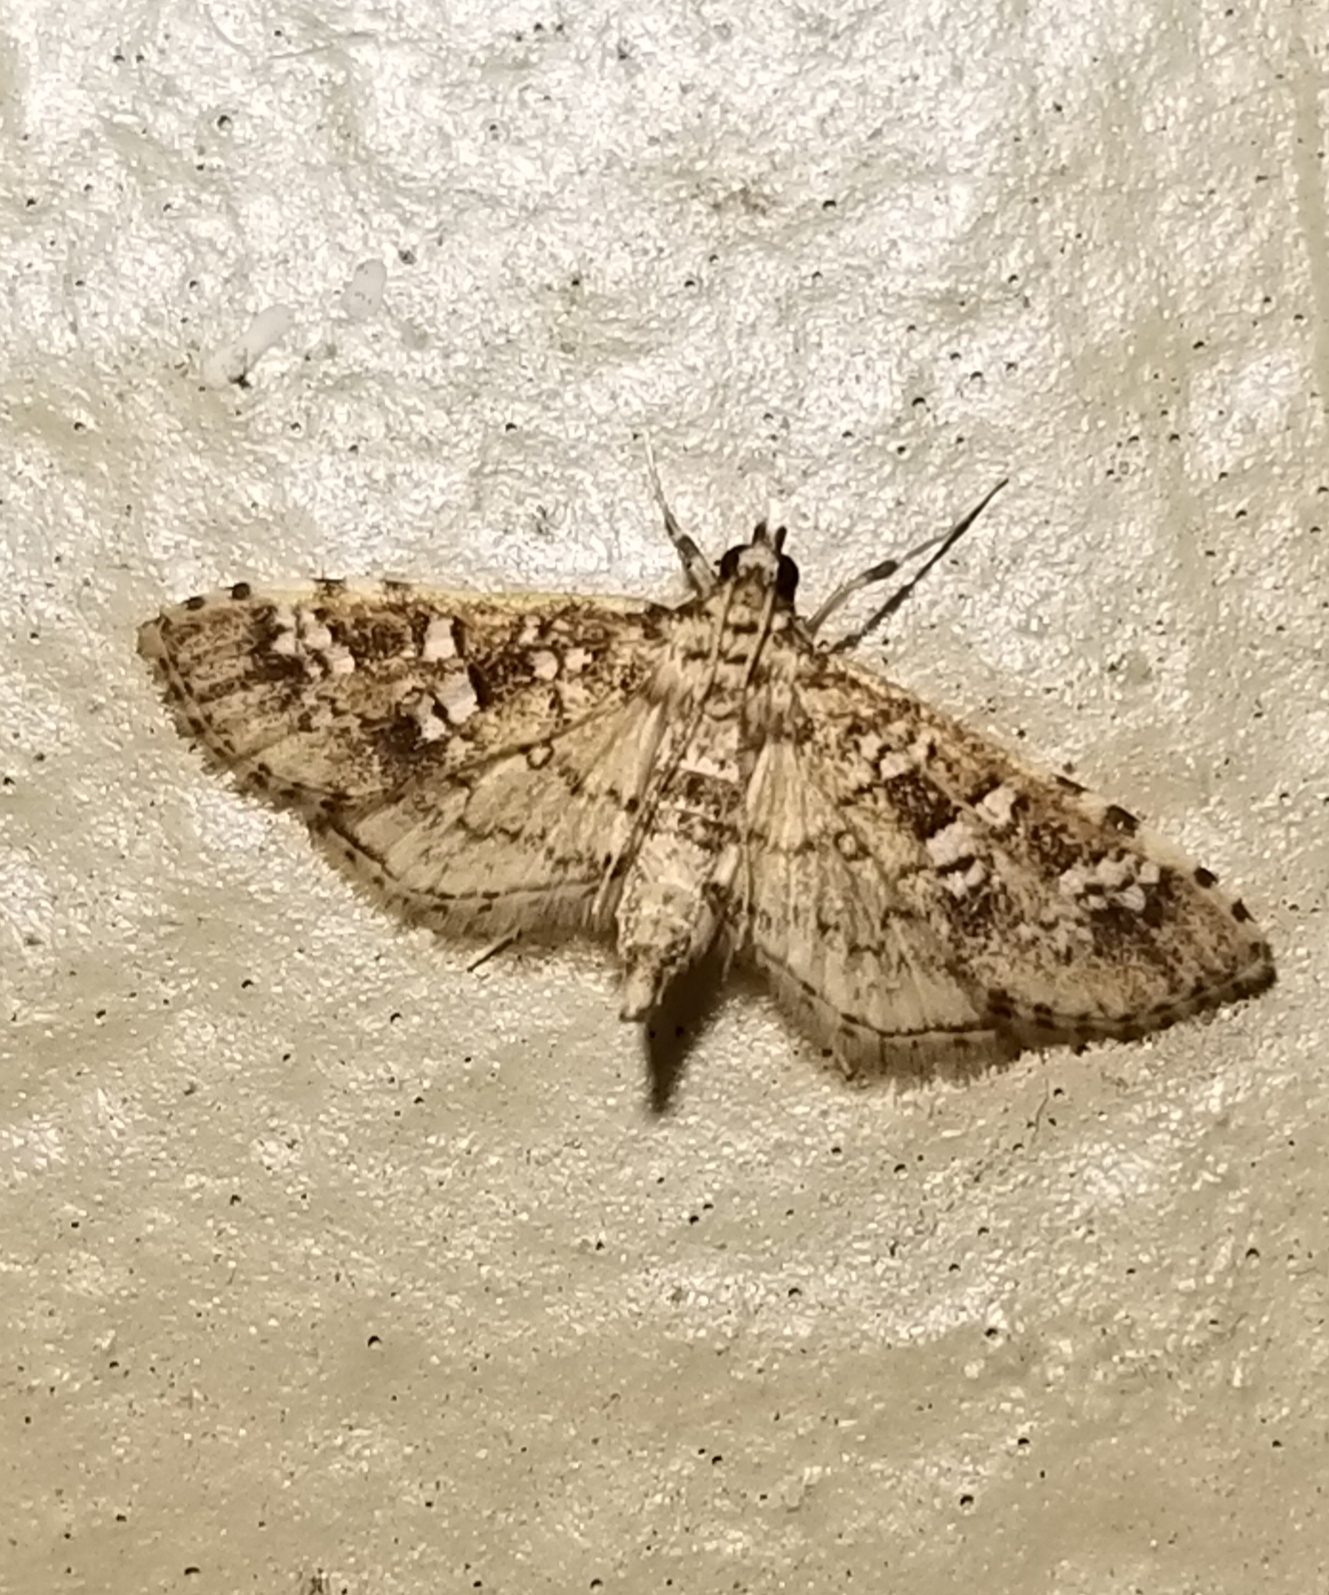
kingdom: Animalia
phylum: Arthropoda
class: Insecta
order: Lepidoptera
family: Crambidae
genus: Samea
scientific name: Samea multiplicalis
